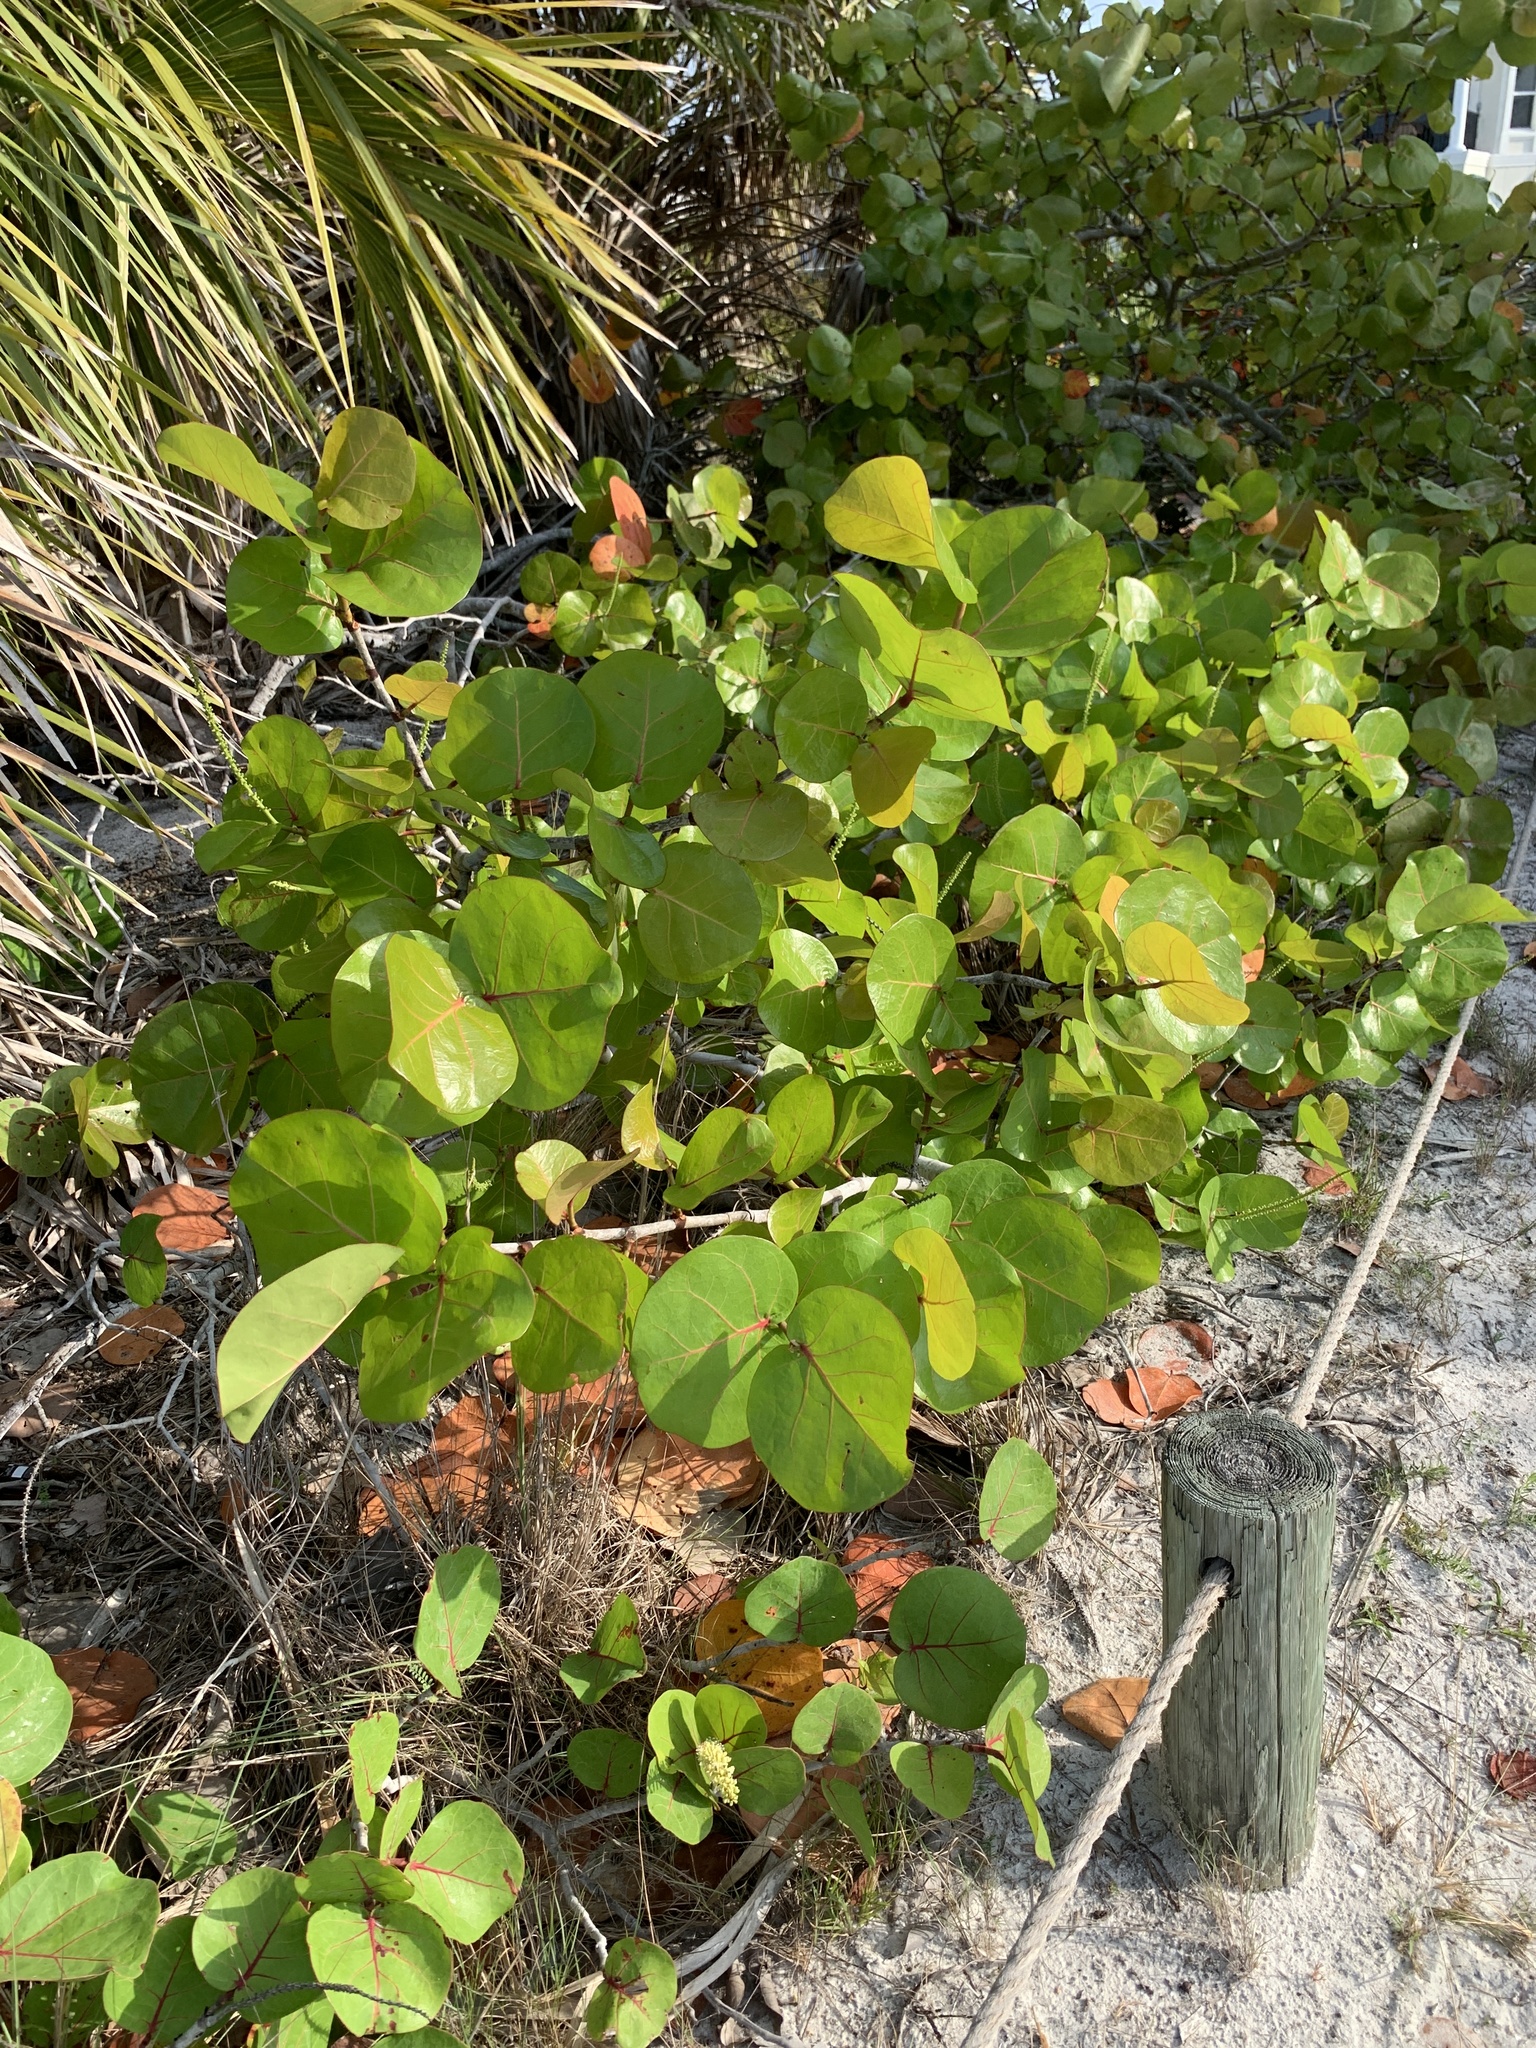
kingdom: Plantae
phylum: Tracheophyta
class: Magnoliopsida
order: Caryophyllales
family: Polygonaceae
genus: Coccoloba
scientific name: Coccoloba uvifera
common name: Seagrape
